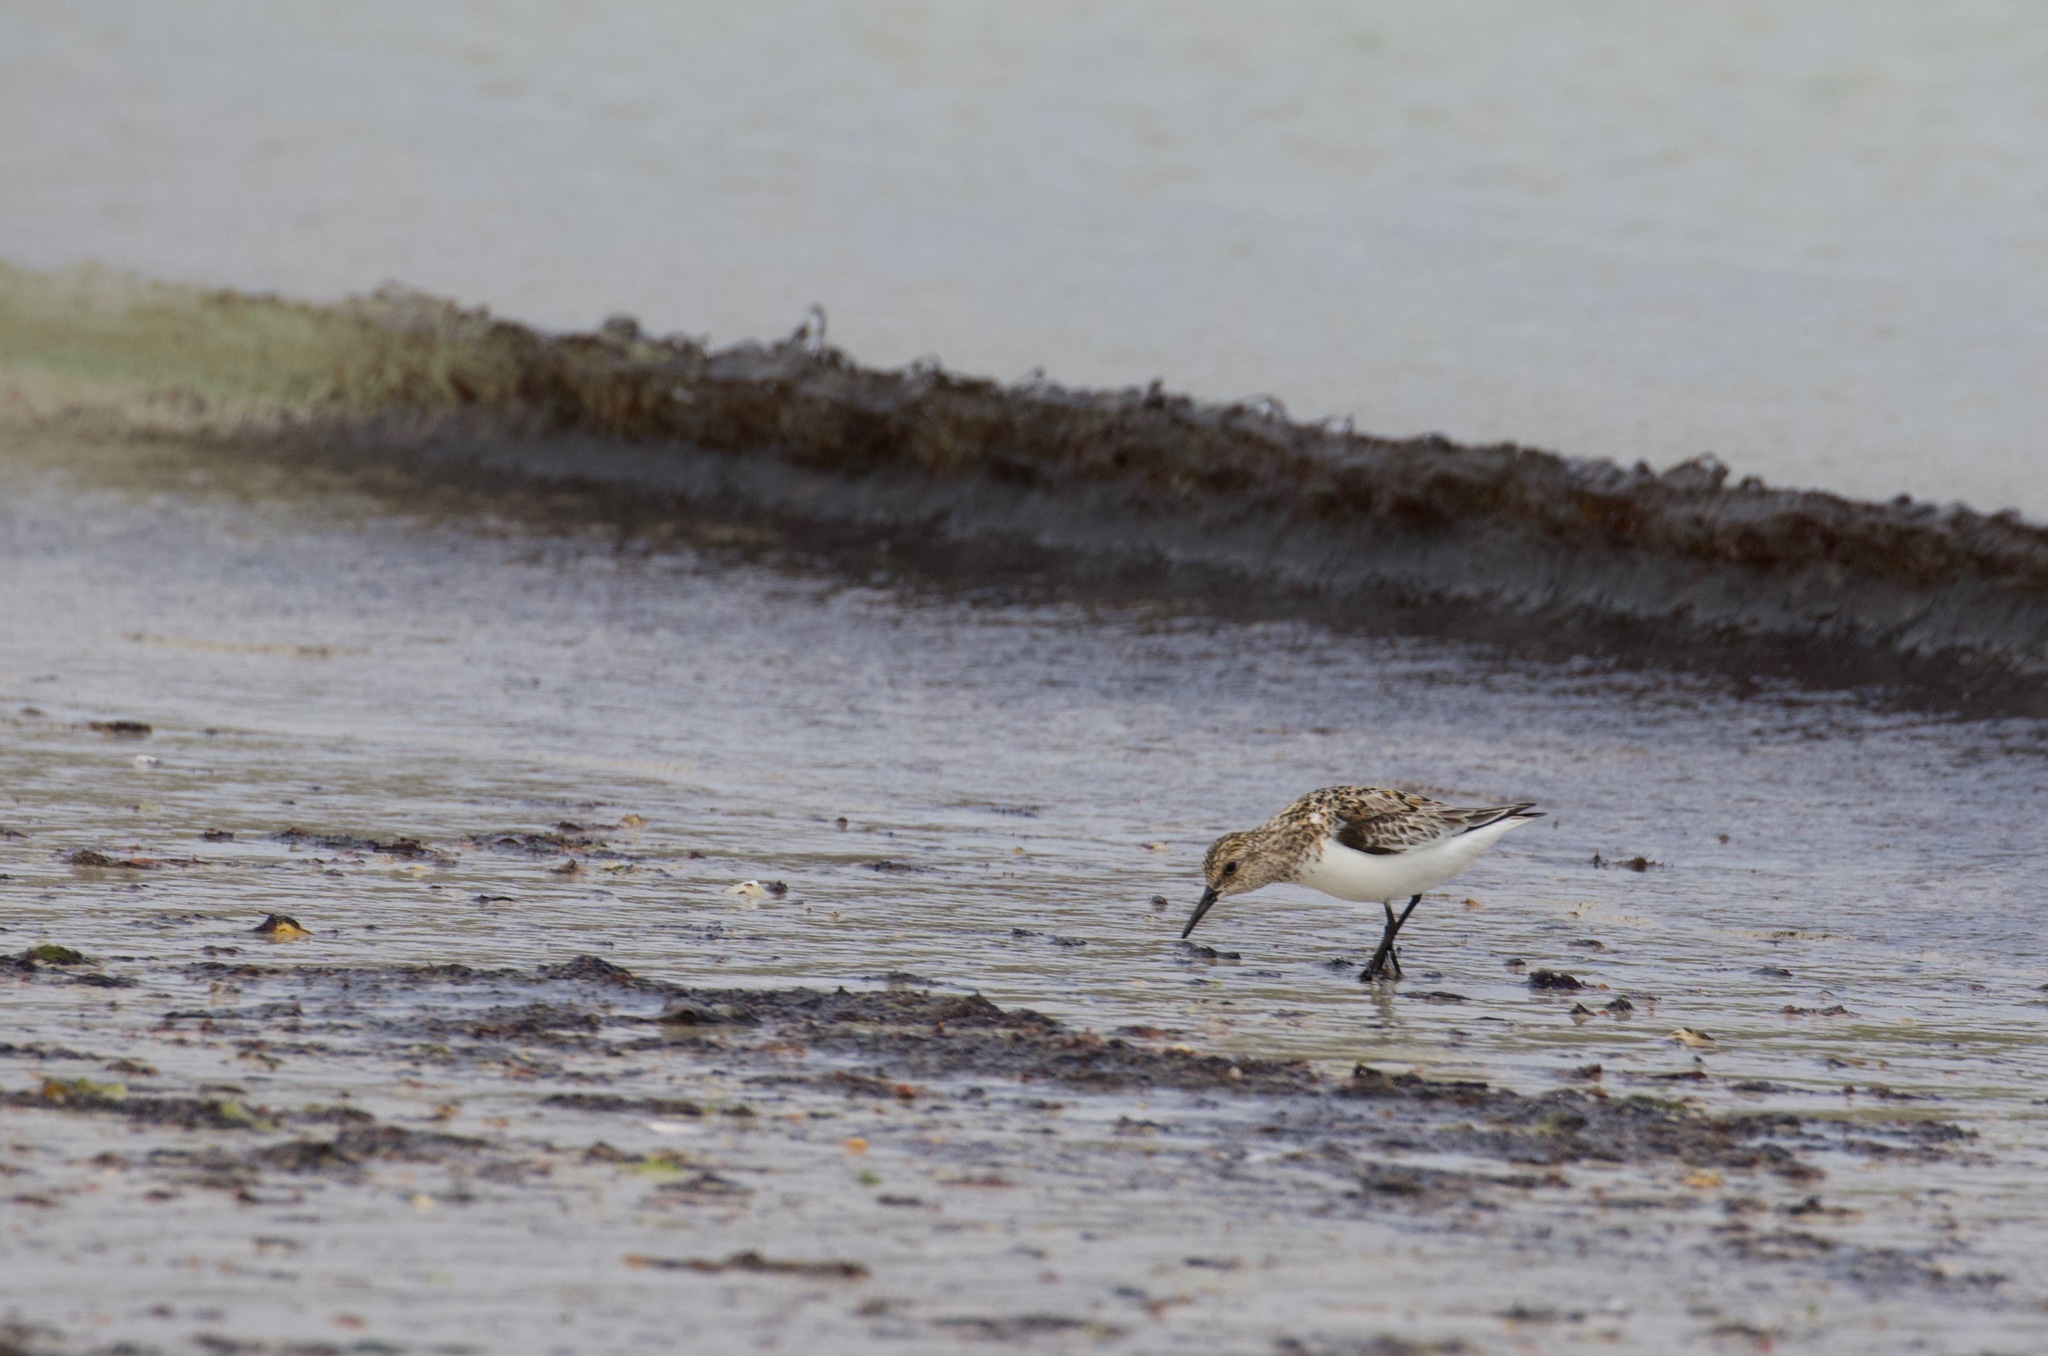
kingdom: Animalia
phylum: Chordata
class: Aves
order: Charadriiformes
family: Scolopacidae
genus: Calidris
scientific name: Calidris alba
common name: Sanderling
